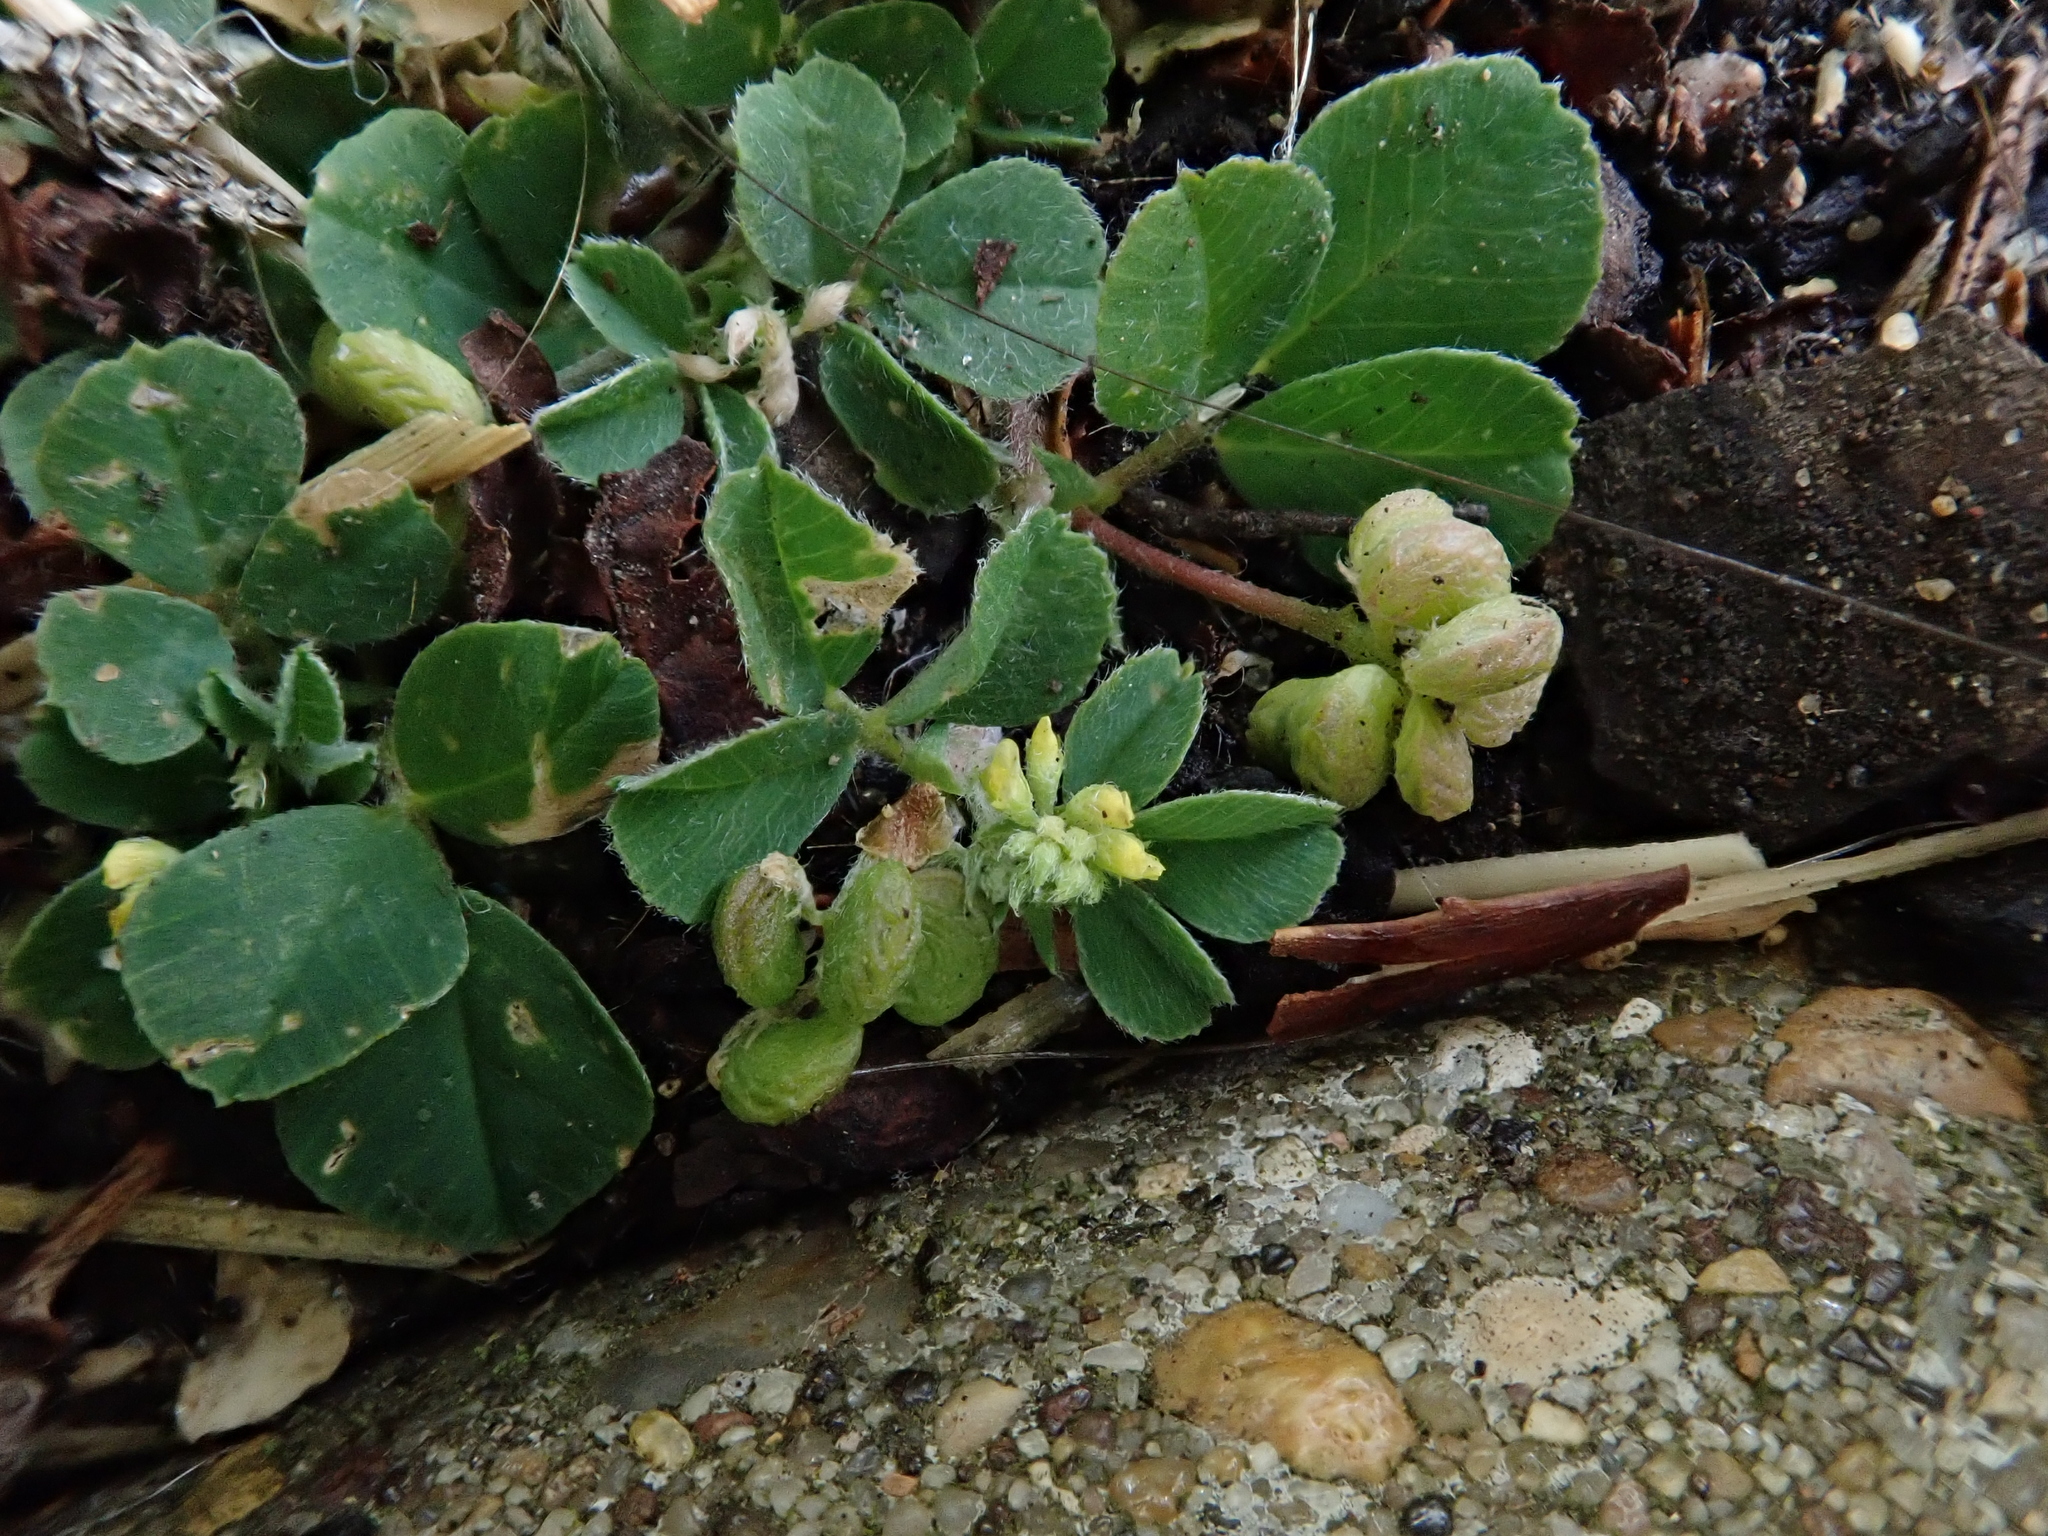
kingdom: Plantae
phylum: Tracheophyta
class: Magnoliopsida
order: Fabales
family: Fabaceae
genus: Medicago
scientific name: Medicago lupulina
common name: Black medick
